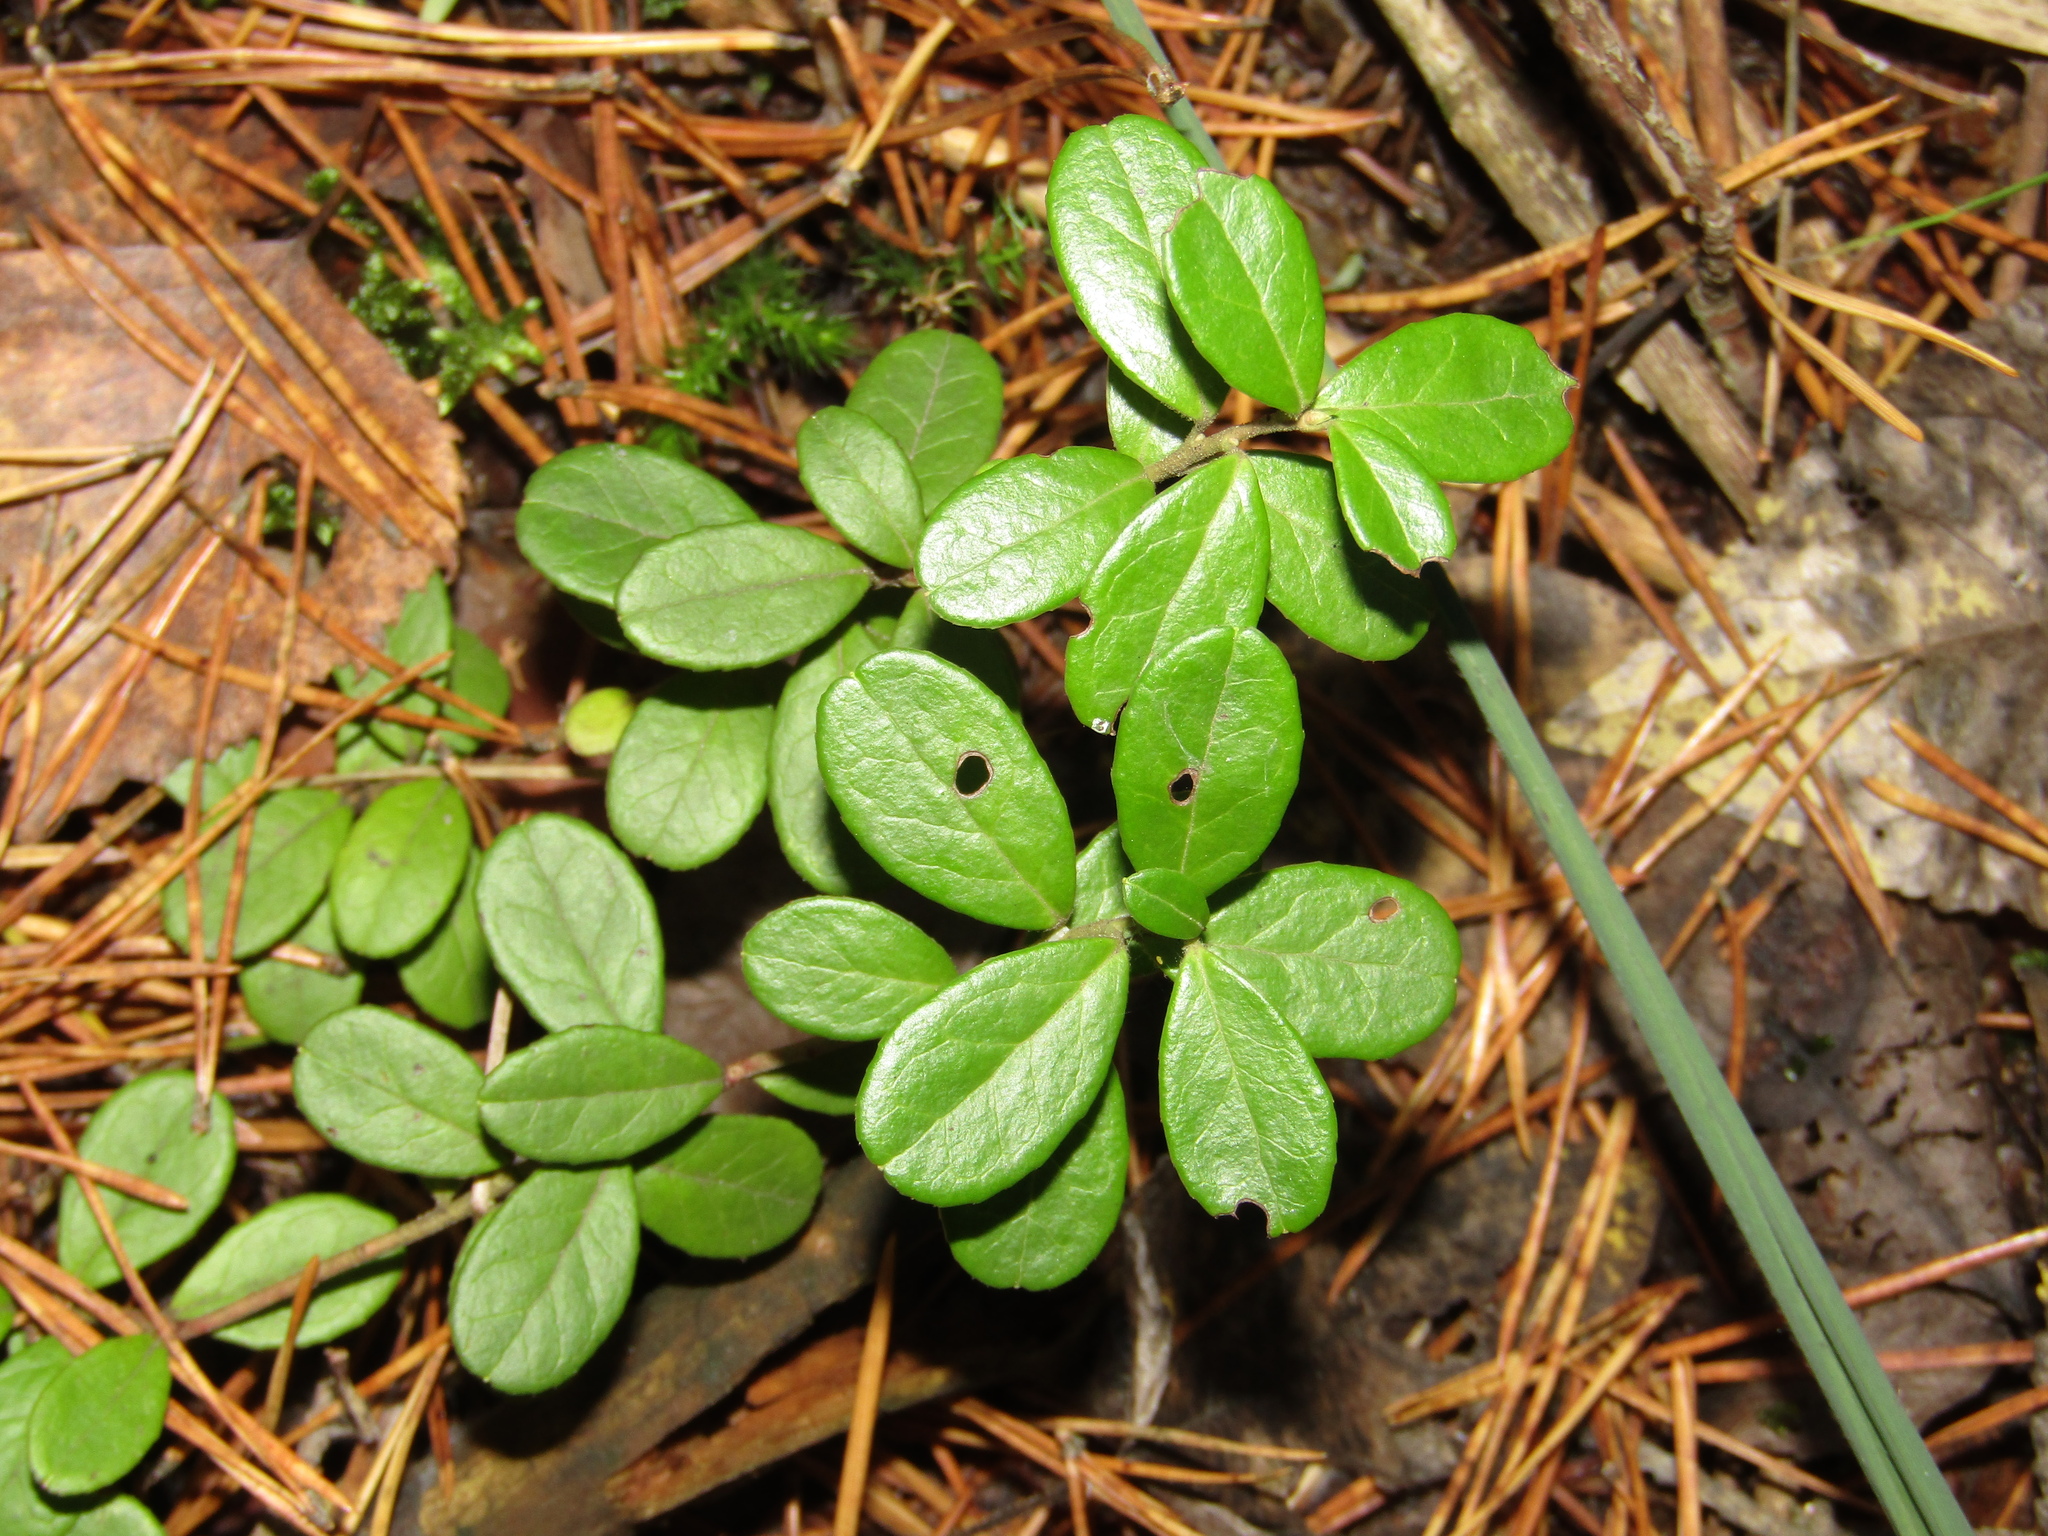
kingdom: Plantae
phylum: Tracheophyta
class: Magnoliopsida
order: Ericales
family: Ericaceae
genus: Vaccinium
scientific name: Vaccinium vitis-idaea
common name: Cowberry
